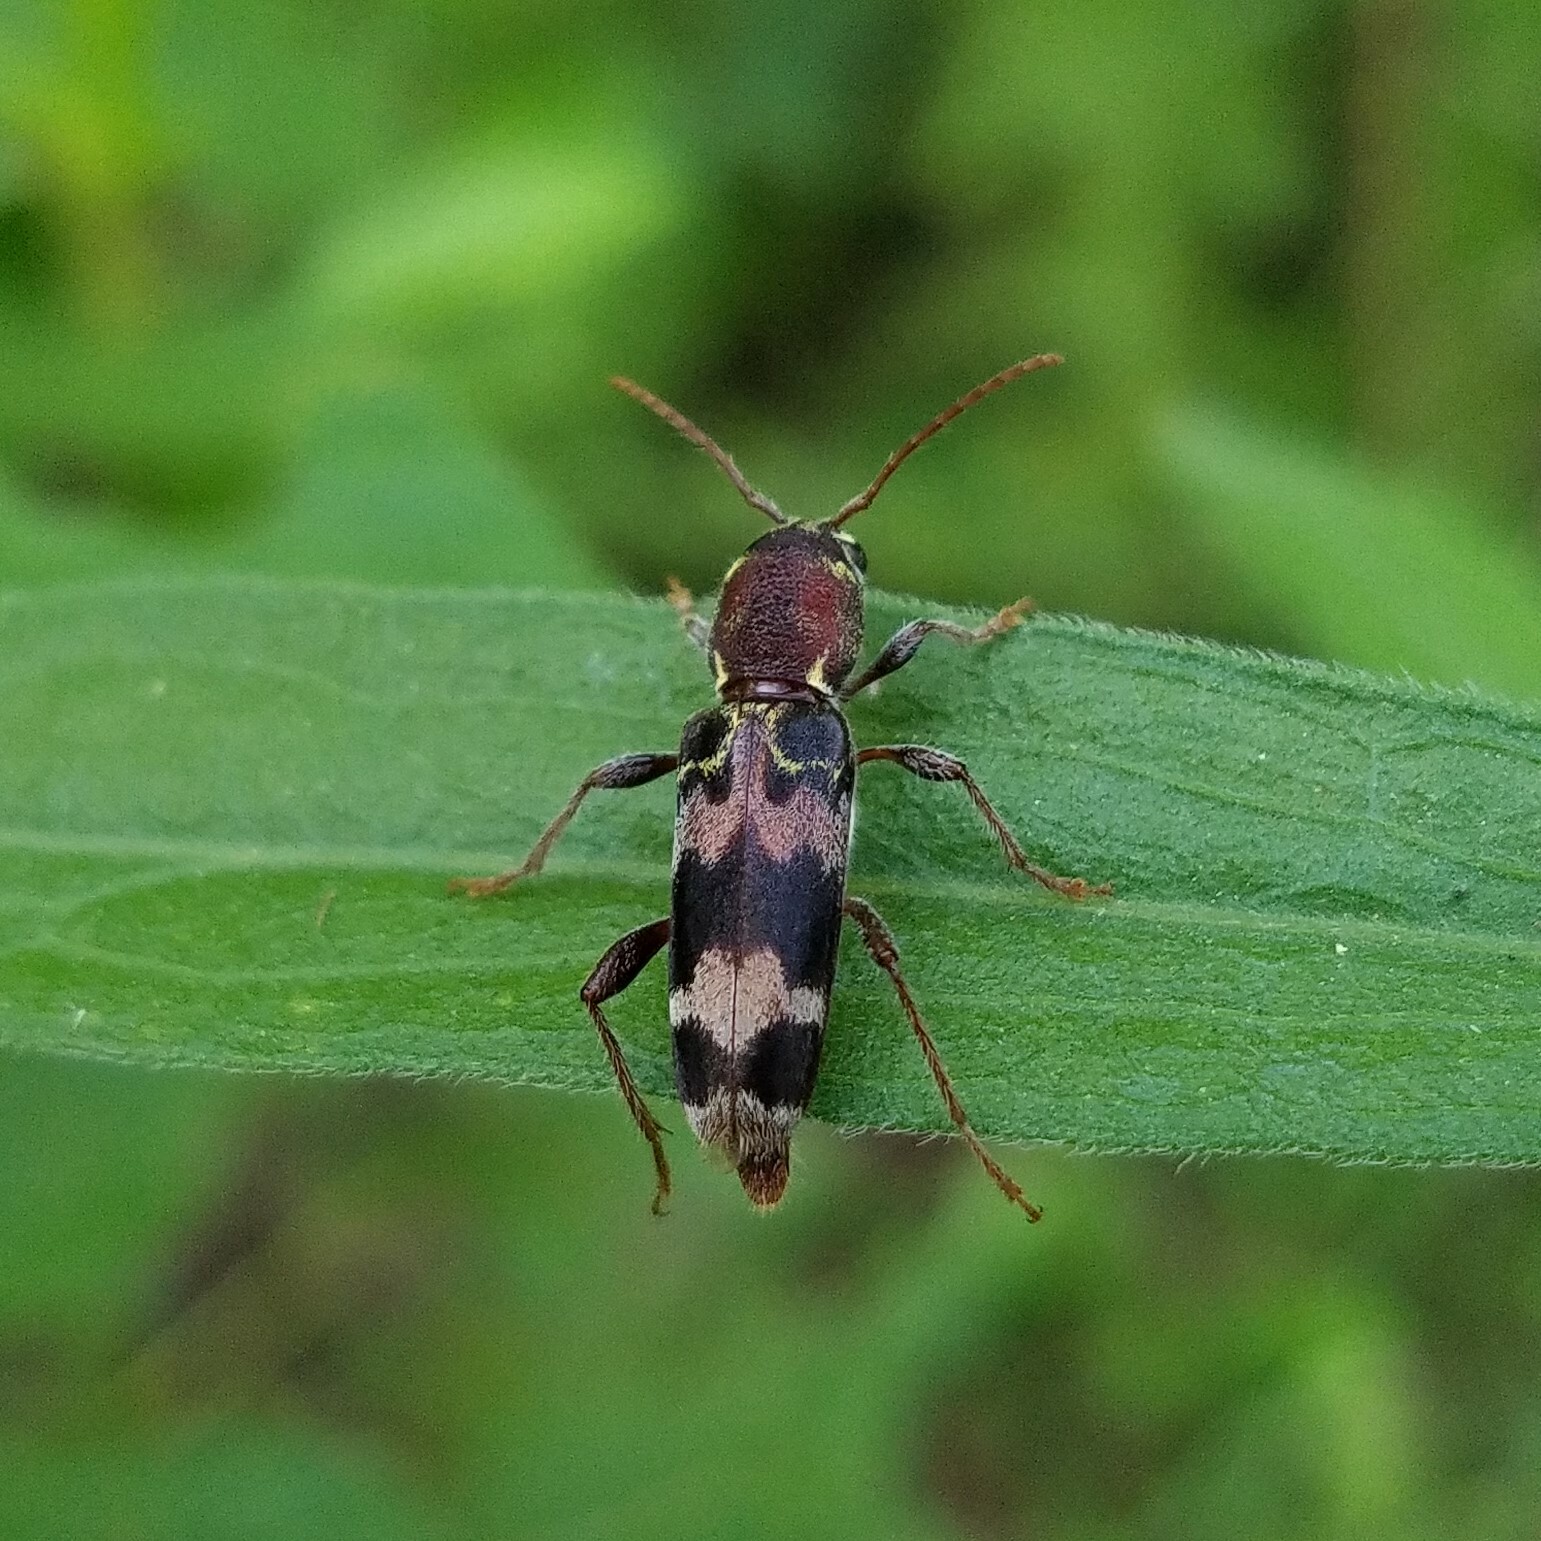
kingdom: Animalia
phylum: Arthropoda
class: Insecta
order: Coleoptera
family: Cerambycidae
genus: Xylotrechus
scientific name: Xylotrechus colonus
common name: Long-horned beetle
